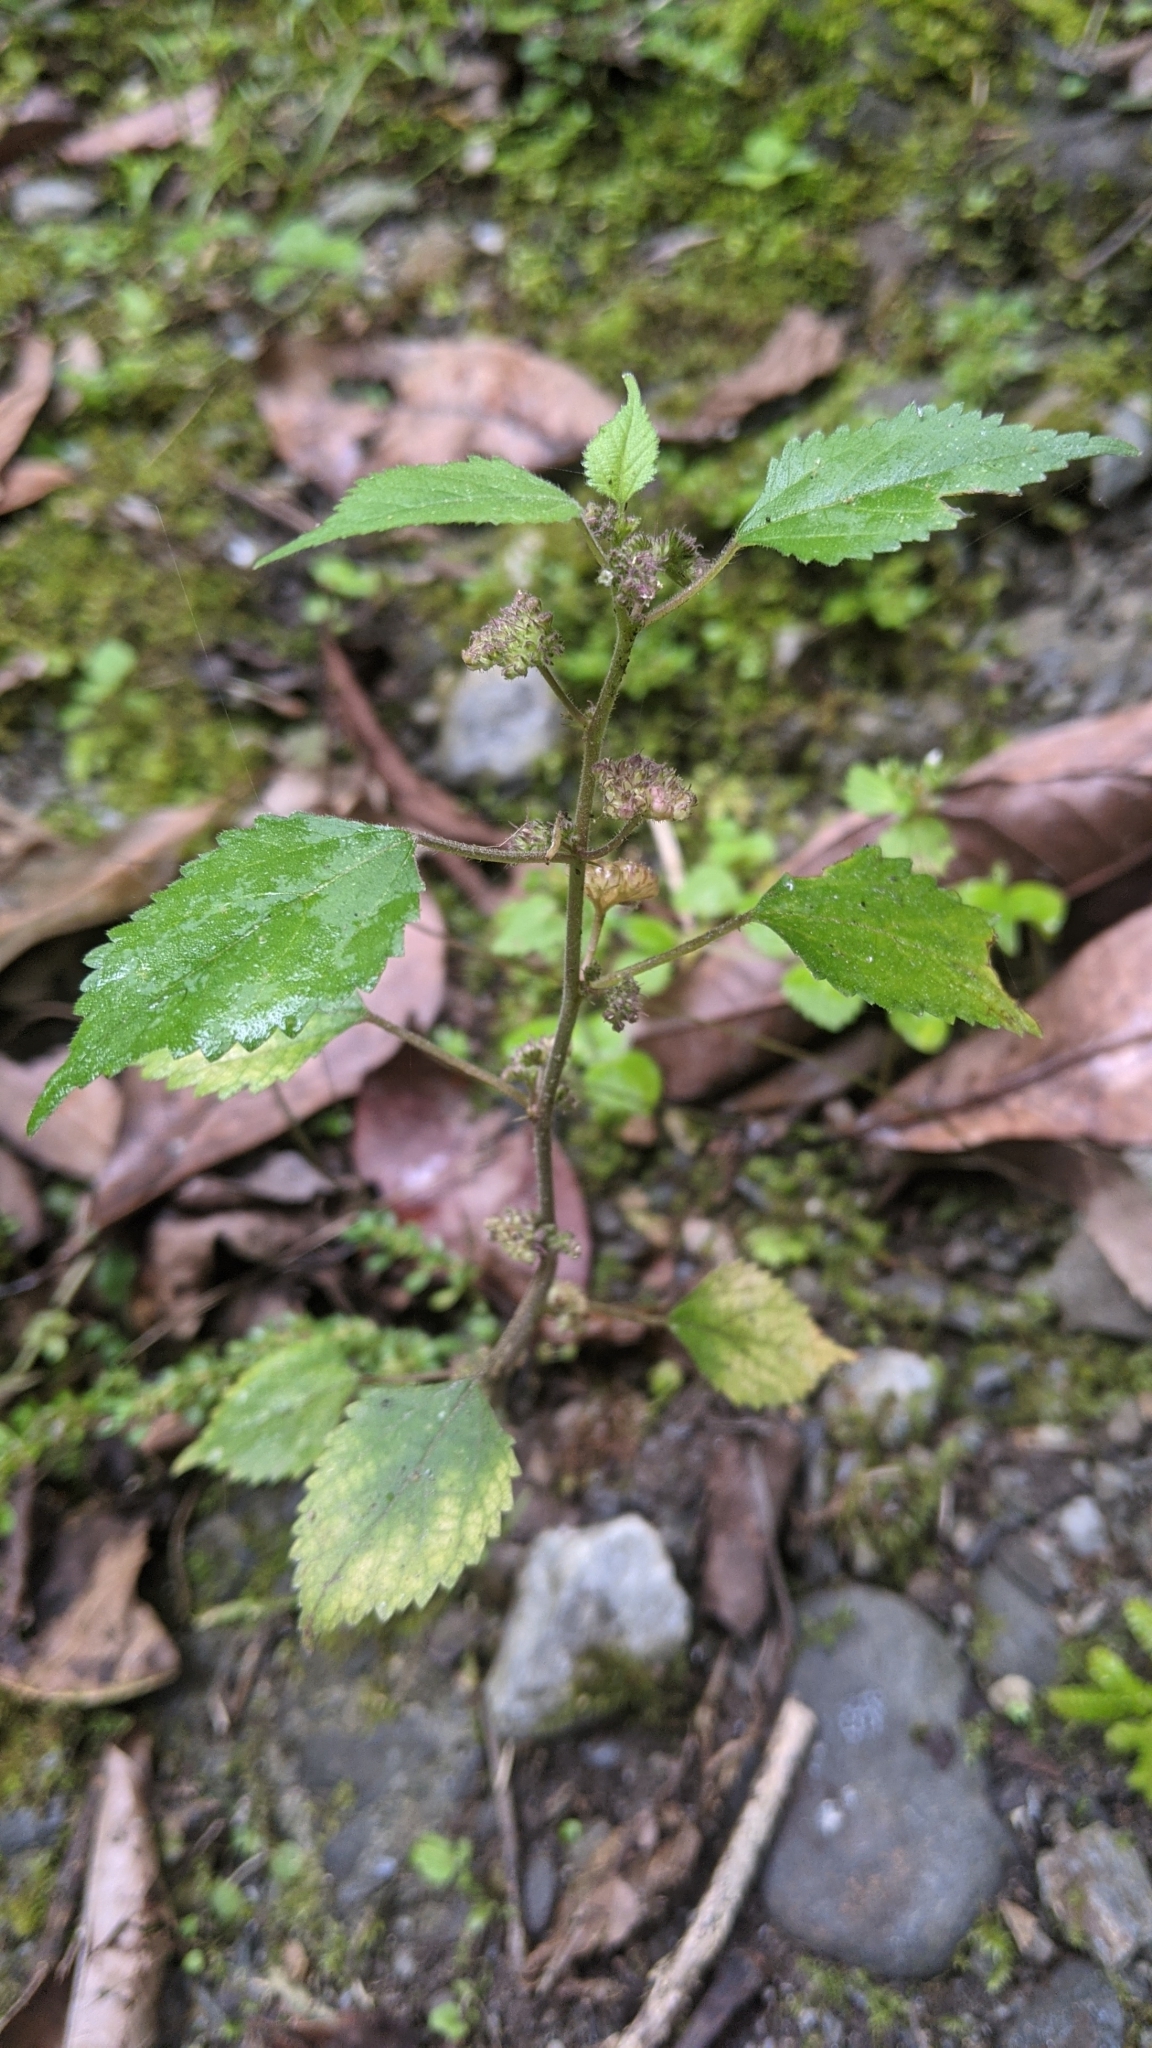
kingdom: Plantae
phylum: Tracheophyta
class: Magnoliopsida
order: Rosales
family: Moraceae
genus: Fatoua
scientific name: Fatoua villosa
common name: Hairy crabweed
